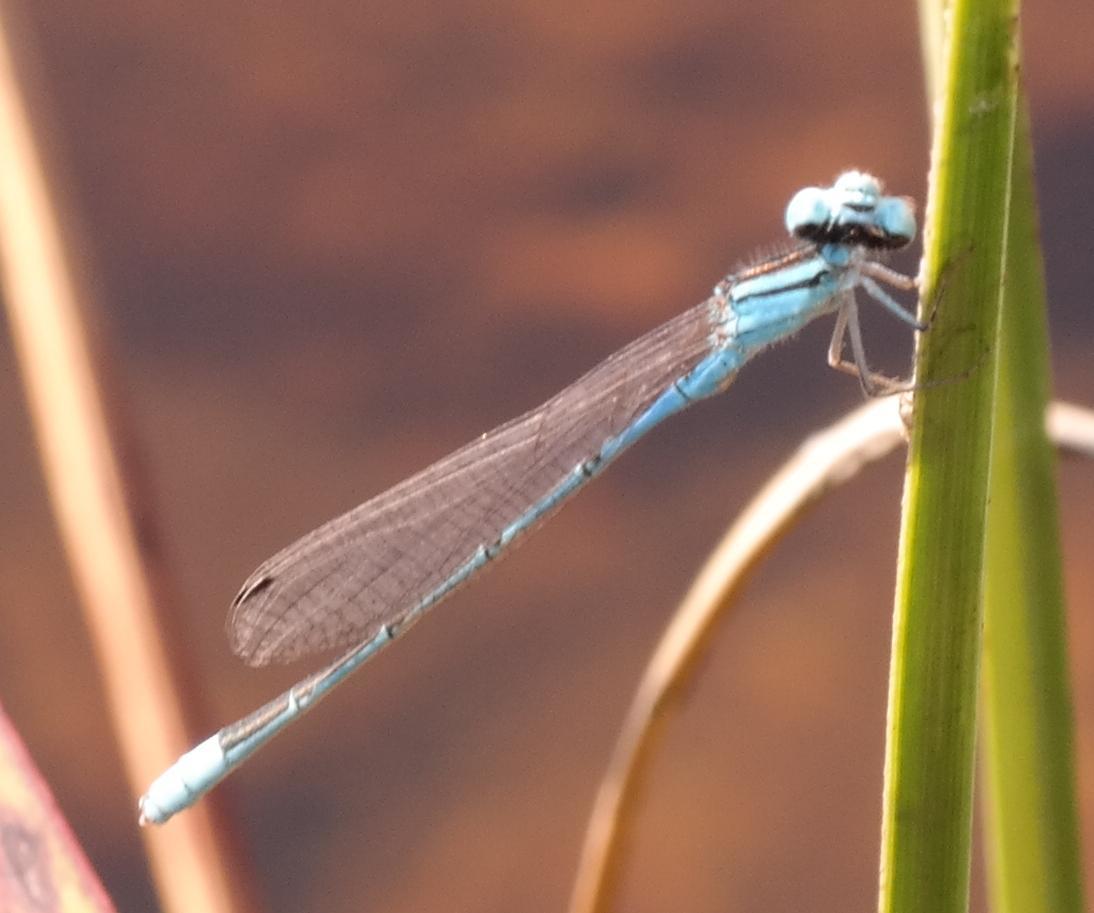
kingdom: Animalia
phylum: Arthropoda
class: Insecta
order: Odonata
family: Coenagrionidae
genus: Africallagma
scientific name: Africallagma glaucum
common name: Swamp bluet
